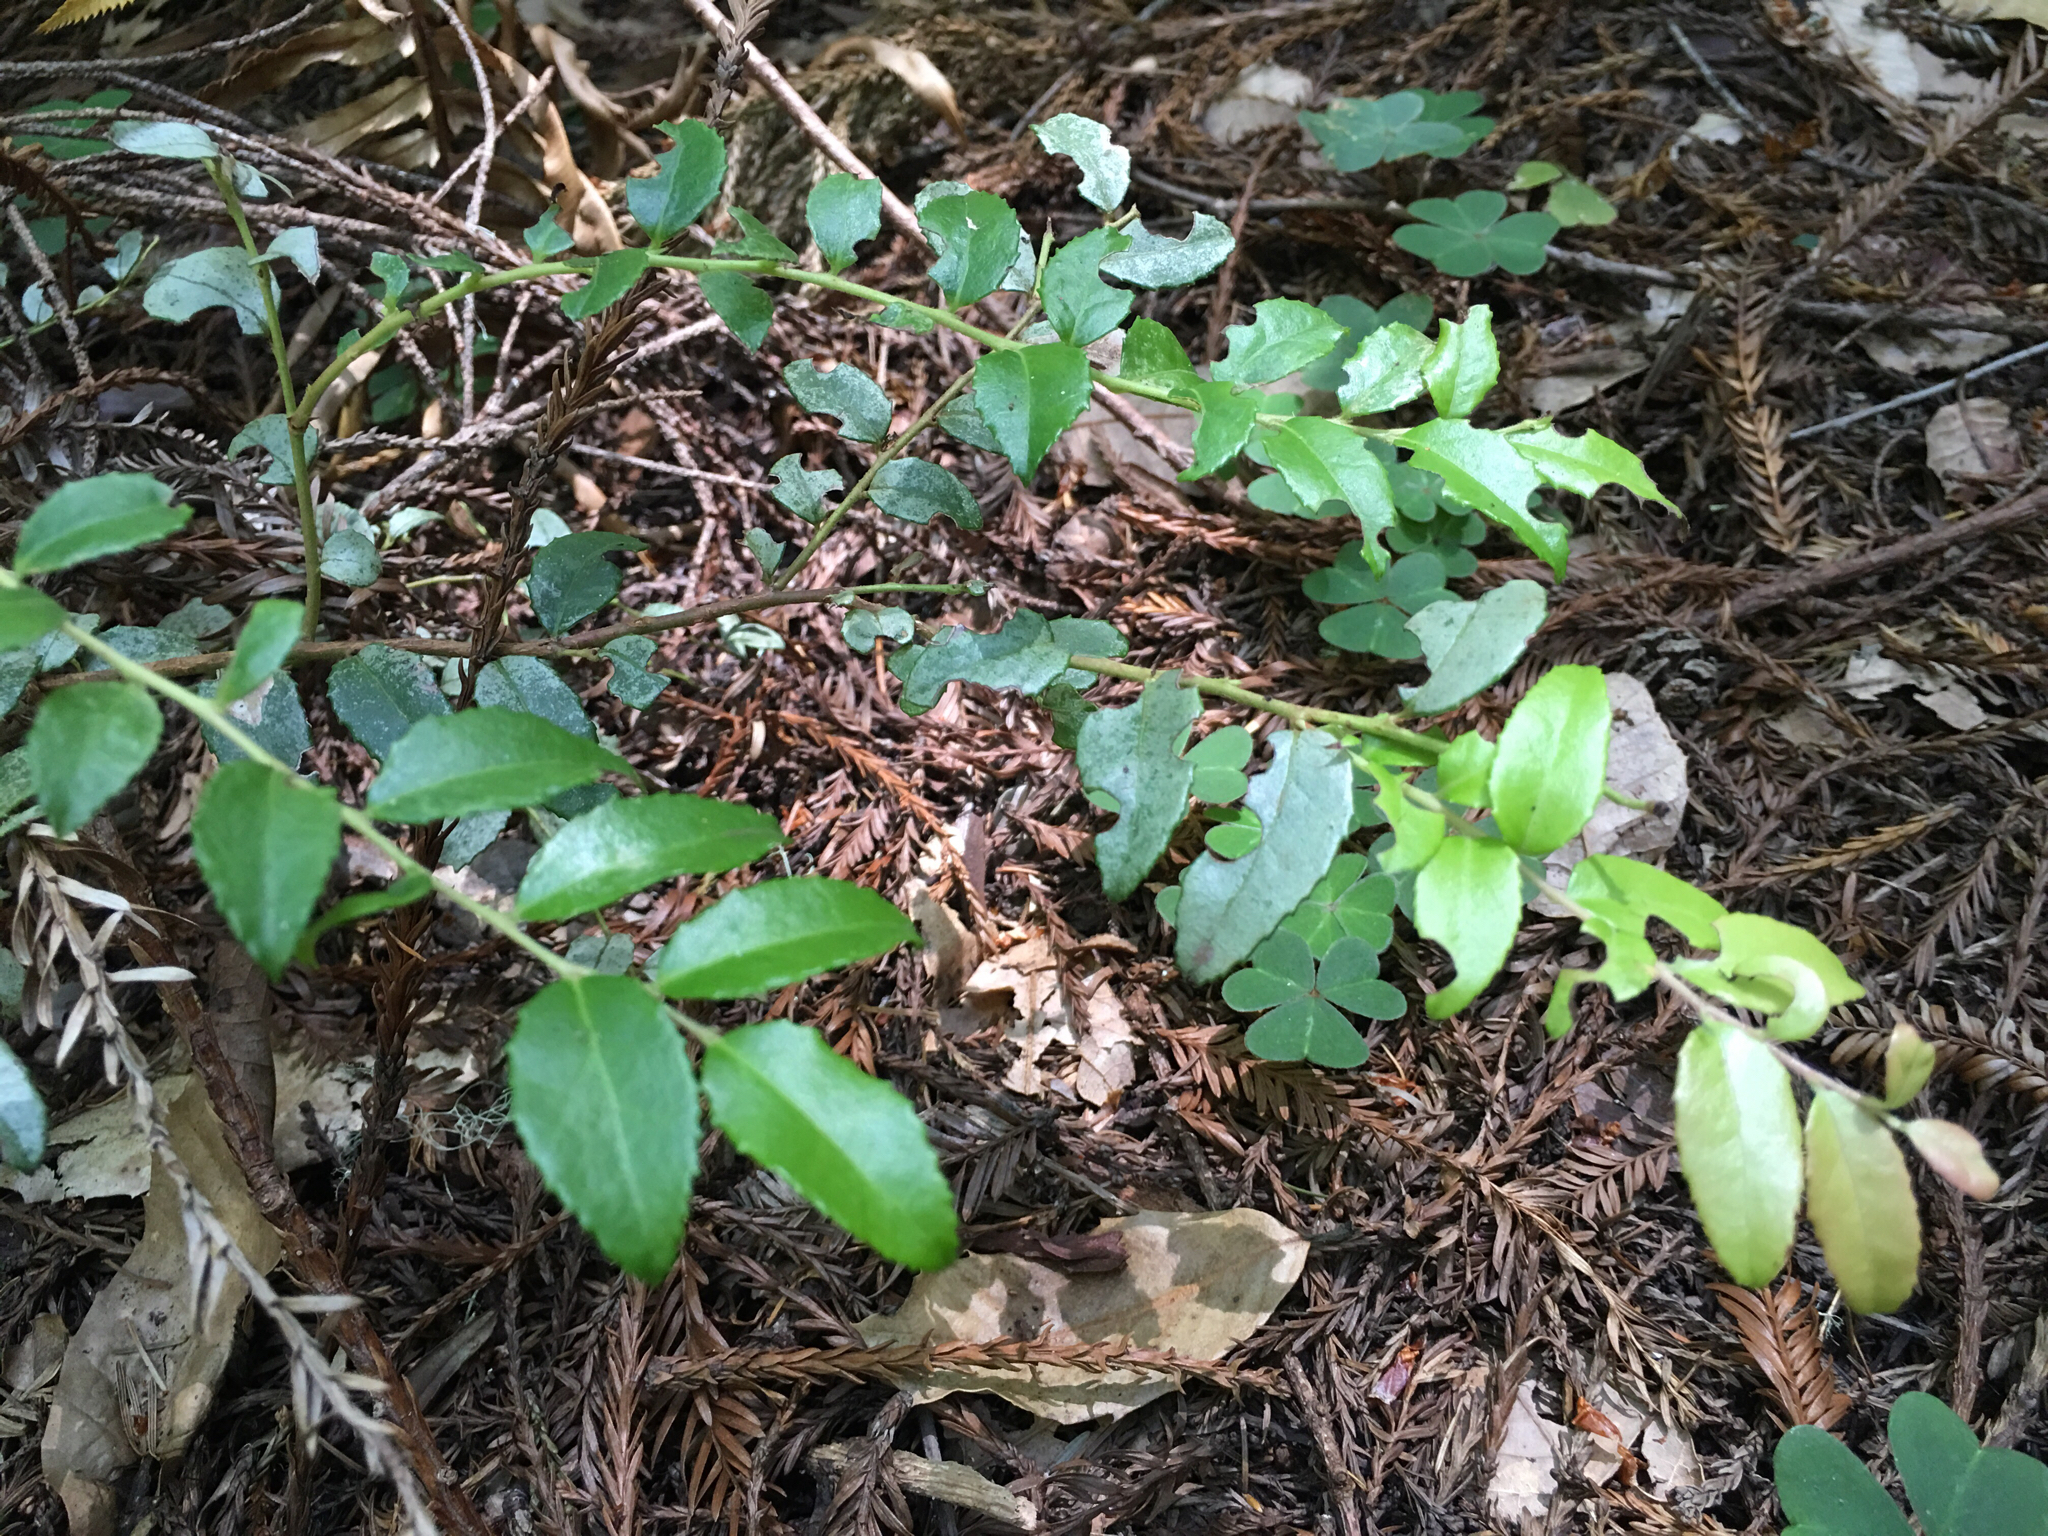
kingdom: Plantae
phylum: Tracheophyta
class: Magnoliopsida
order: Ericales
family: Ericaceae
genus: Vaccinium
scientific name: Vaccinium ovatum
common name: California-huckleberry
